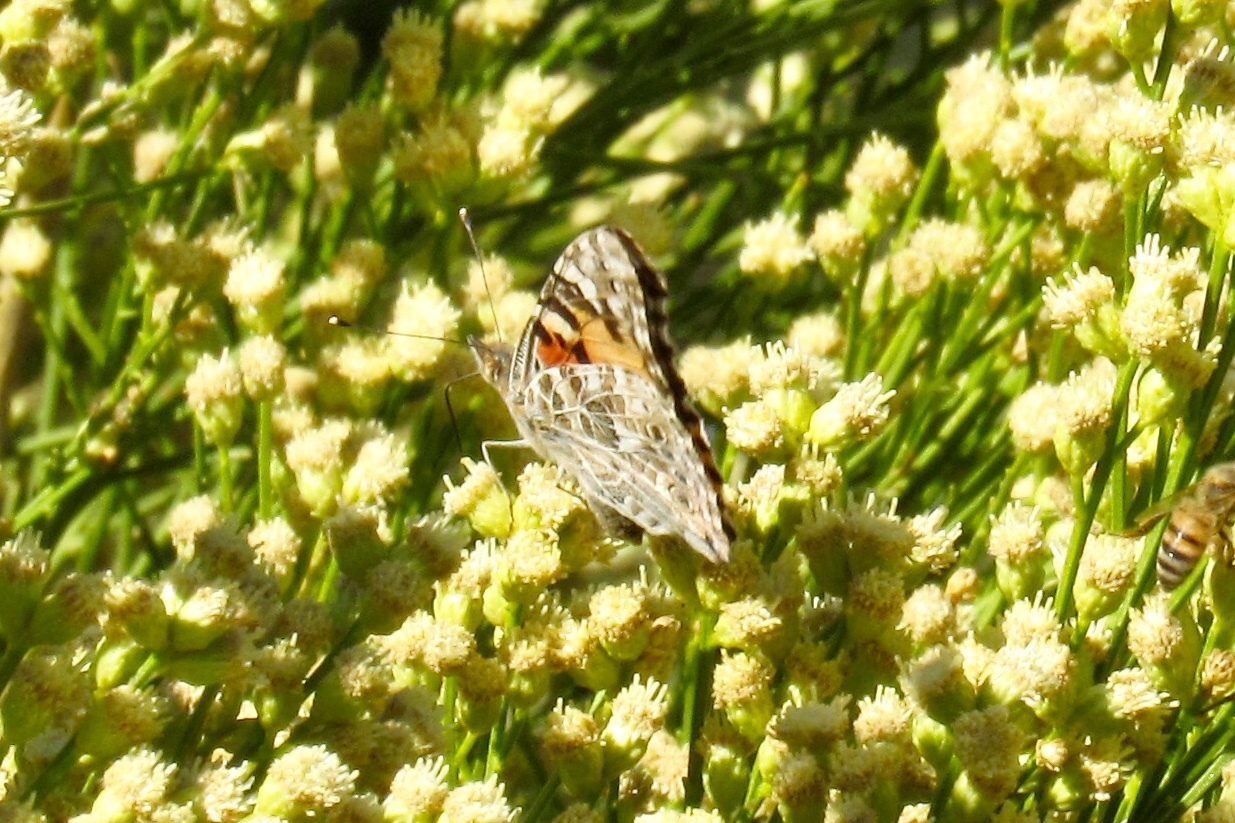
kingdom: Animalia
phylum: Arthropoda
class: Insecta
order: Lepidoptera
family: Nymphalidae
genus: Vanessa
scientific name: Vanessa cardui
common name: Painted lady
